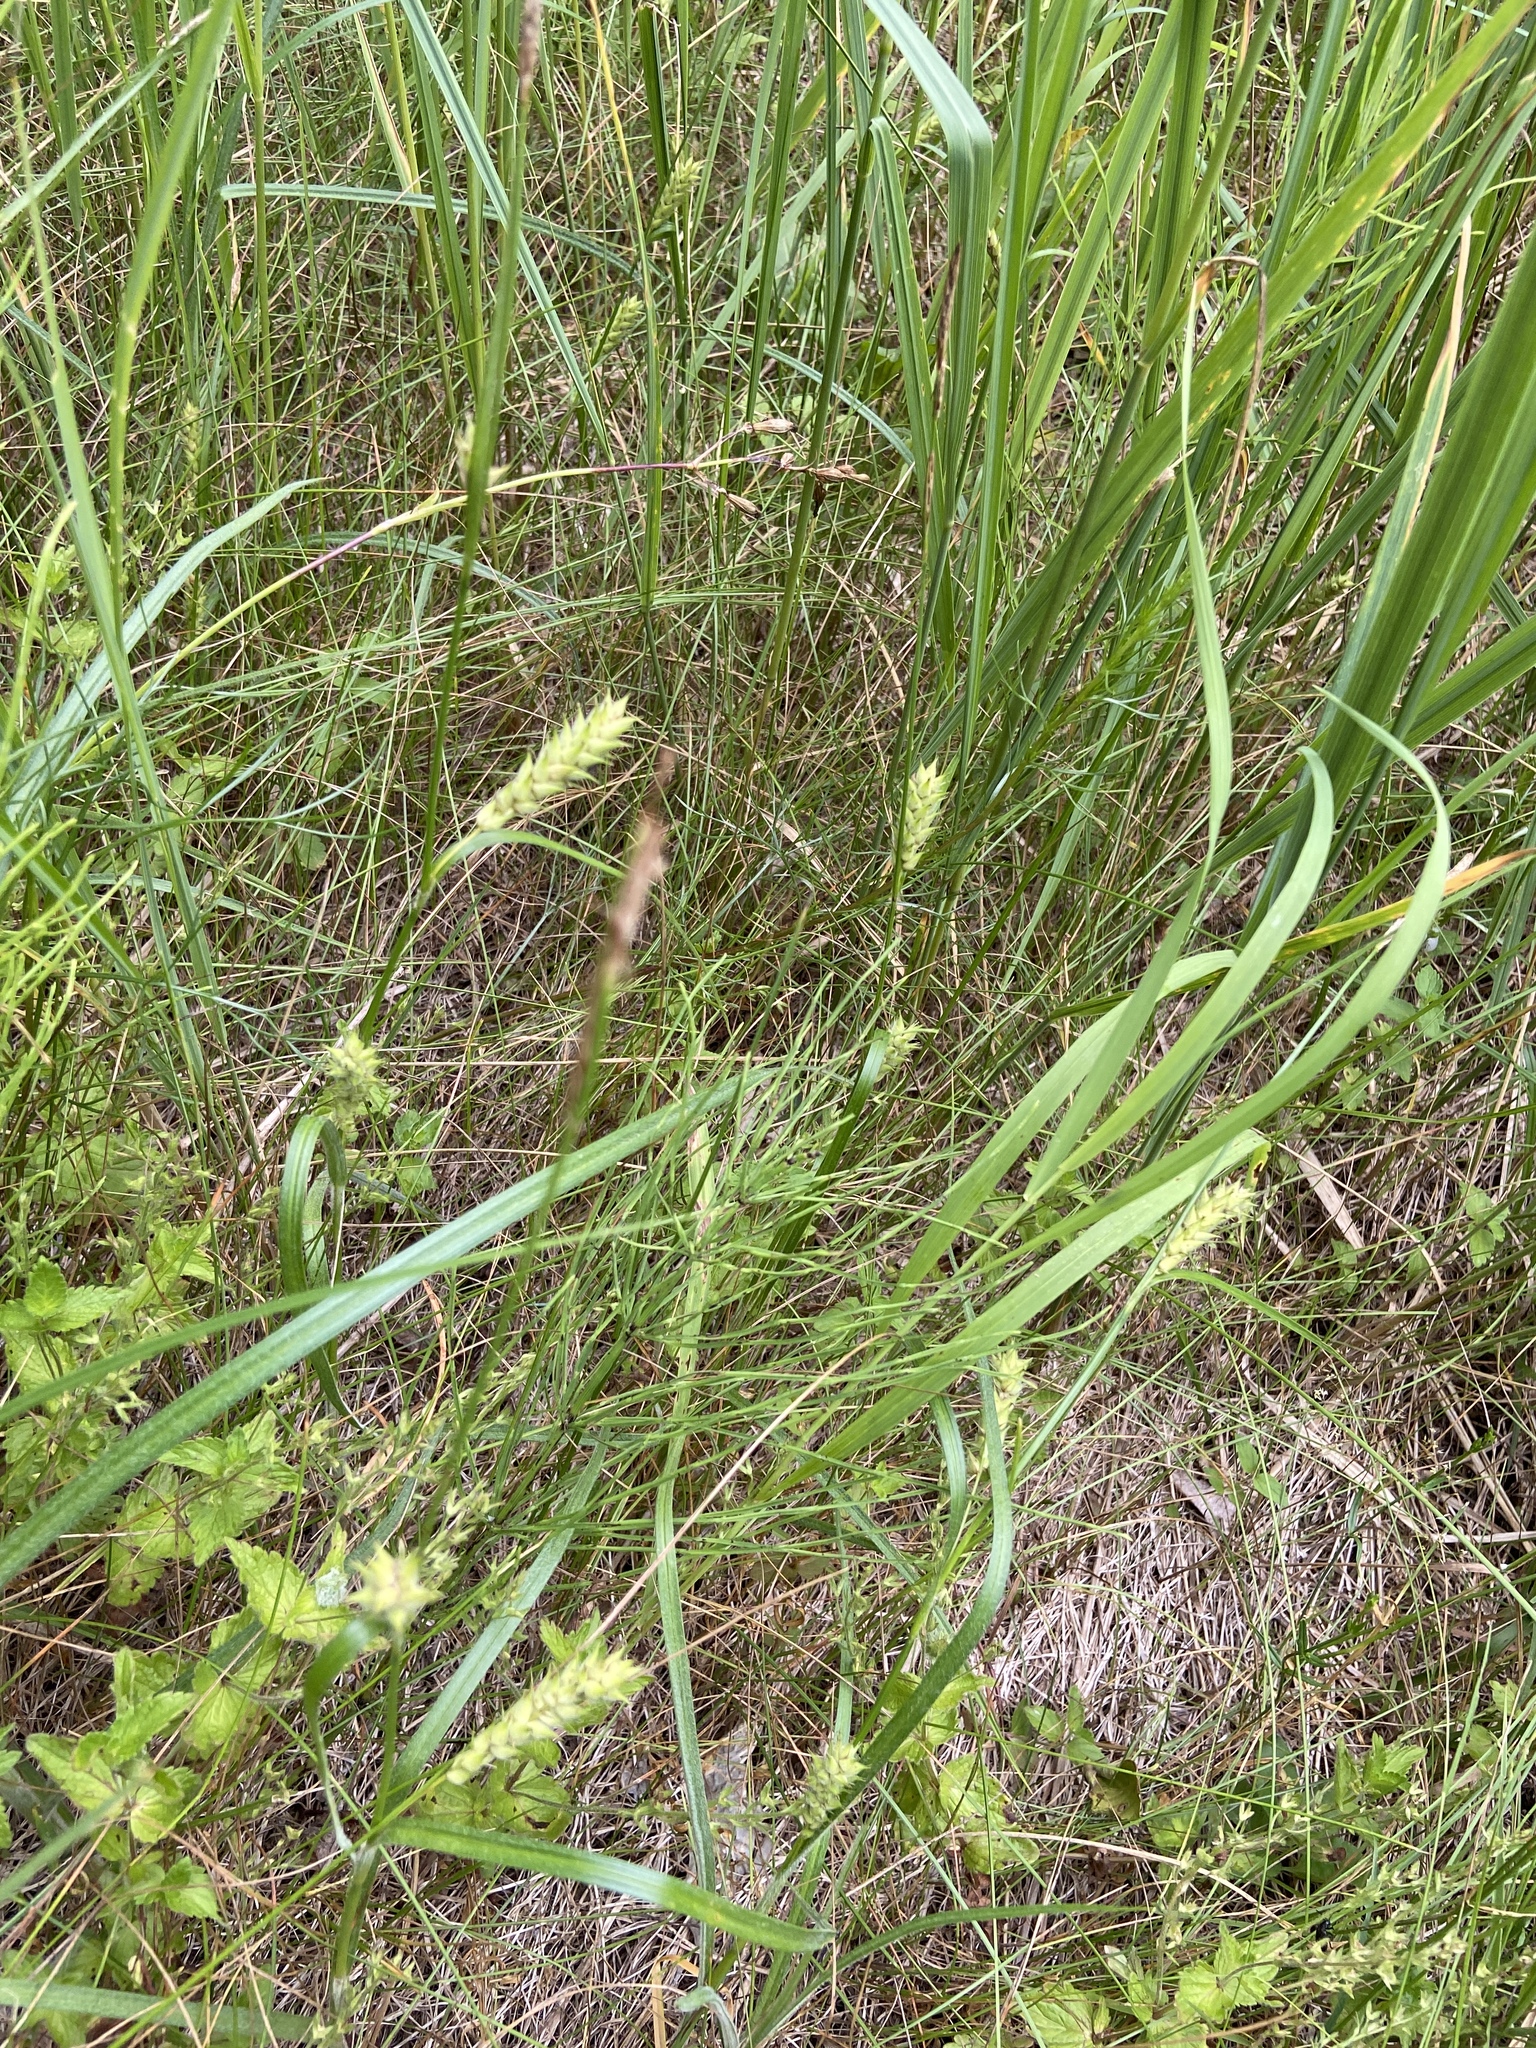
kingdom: Plantae
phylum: Tracheophyta
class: Liliopsida
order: Poales
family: Cyperaceae
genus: Carex
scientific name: Carex hirta
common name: Hairy sedge
